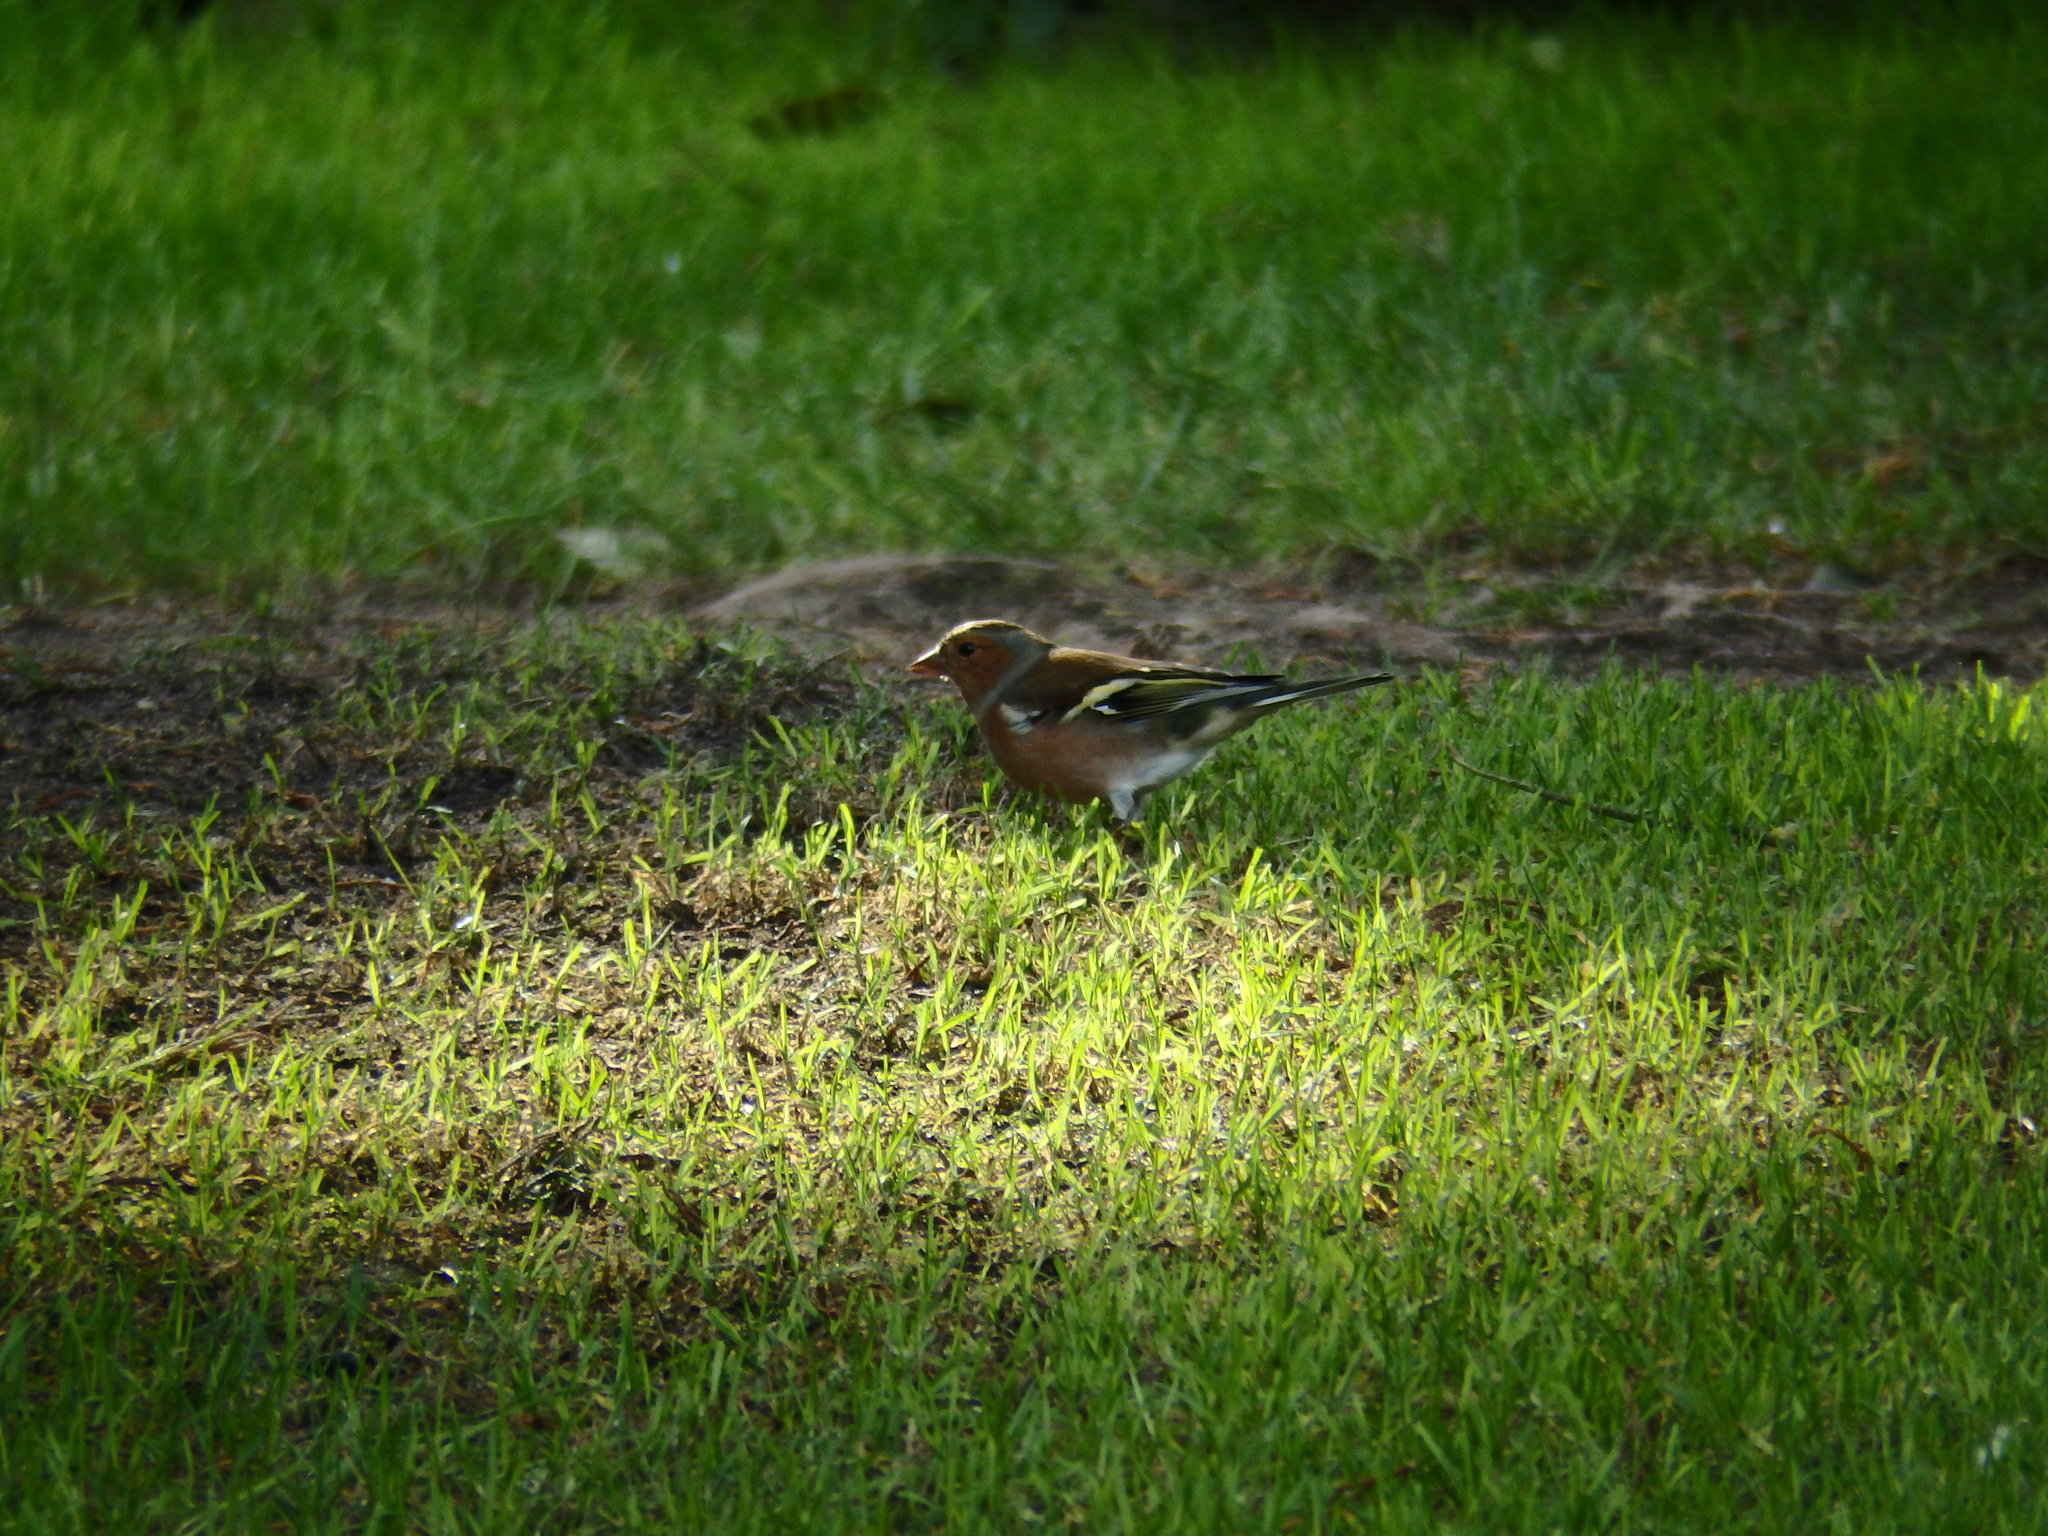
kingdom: Animalia
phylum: Chordata
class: Aves
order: Passeriformes
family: Fringillidae
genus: Fringilla
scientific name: Fringilla coelebs
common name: Common chaffinch
